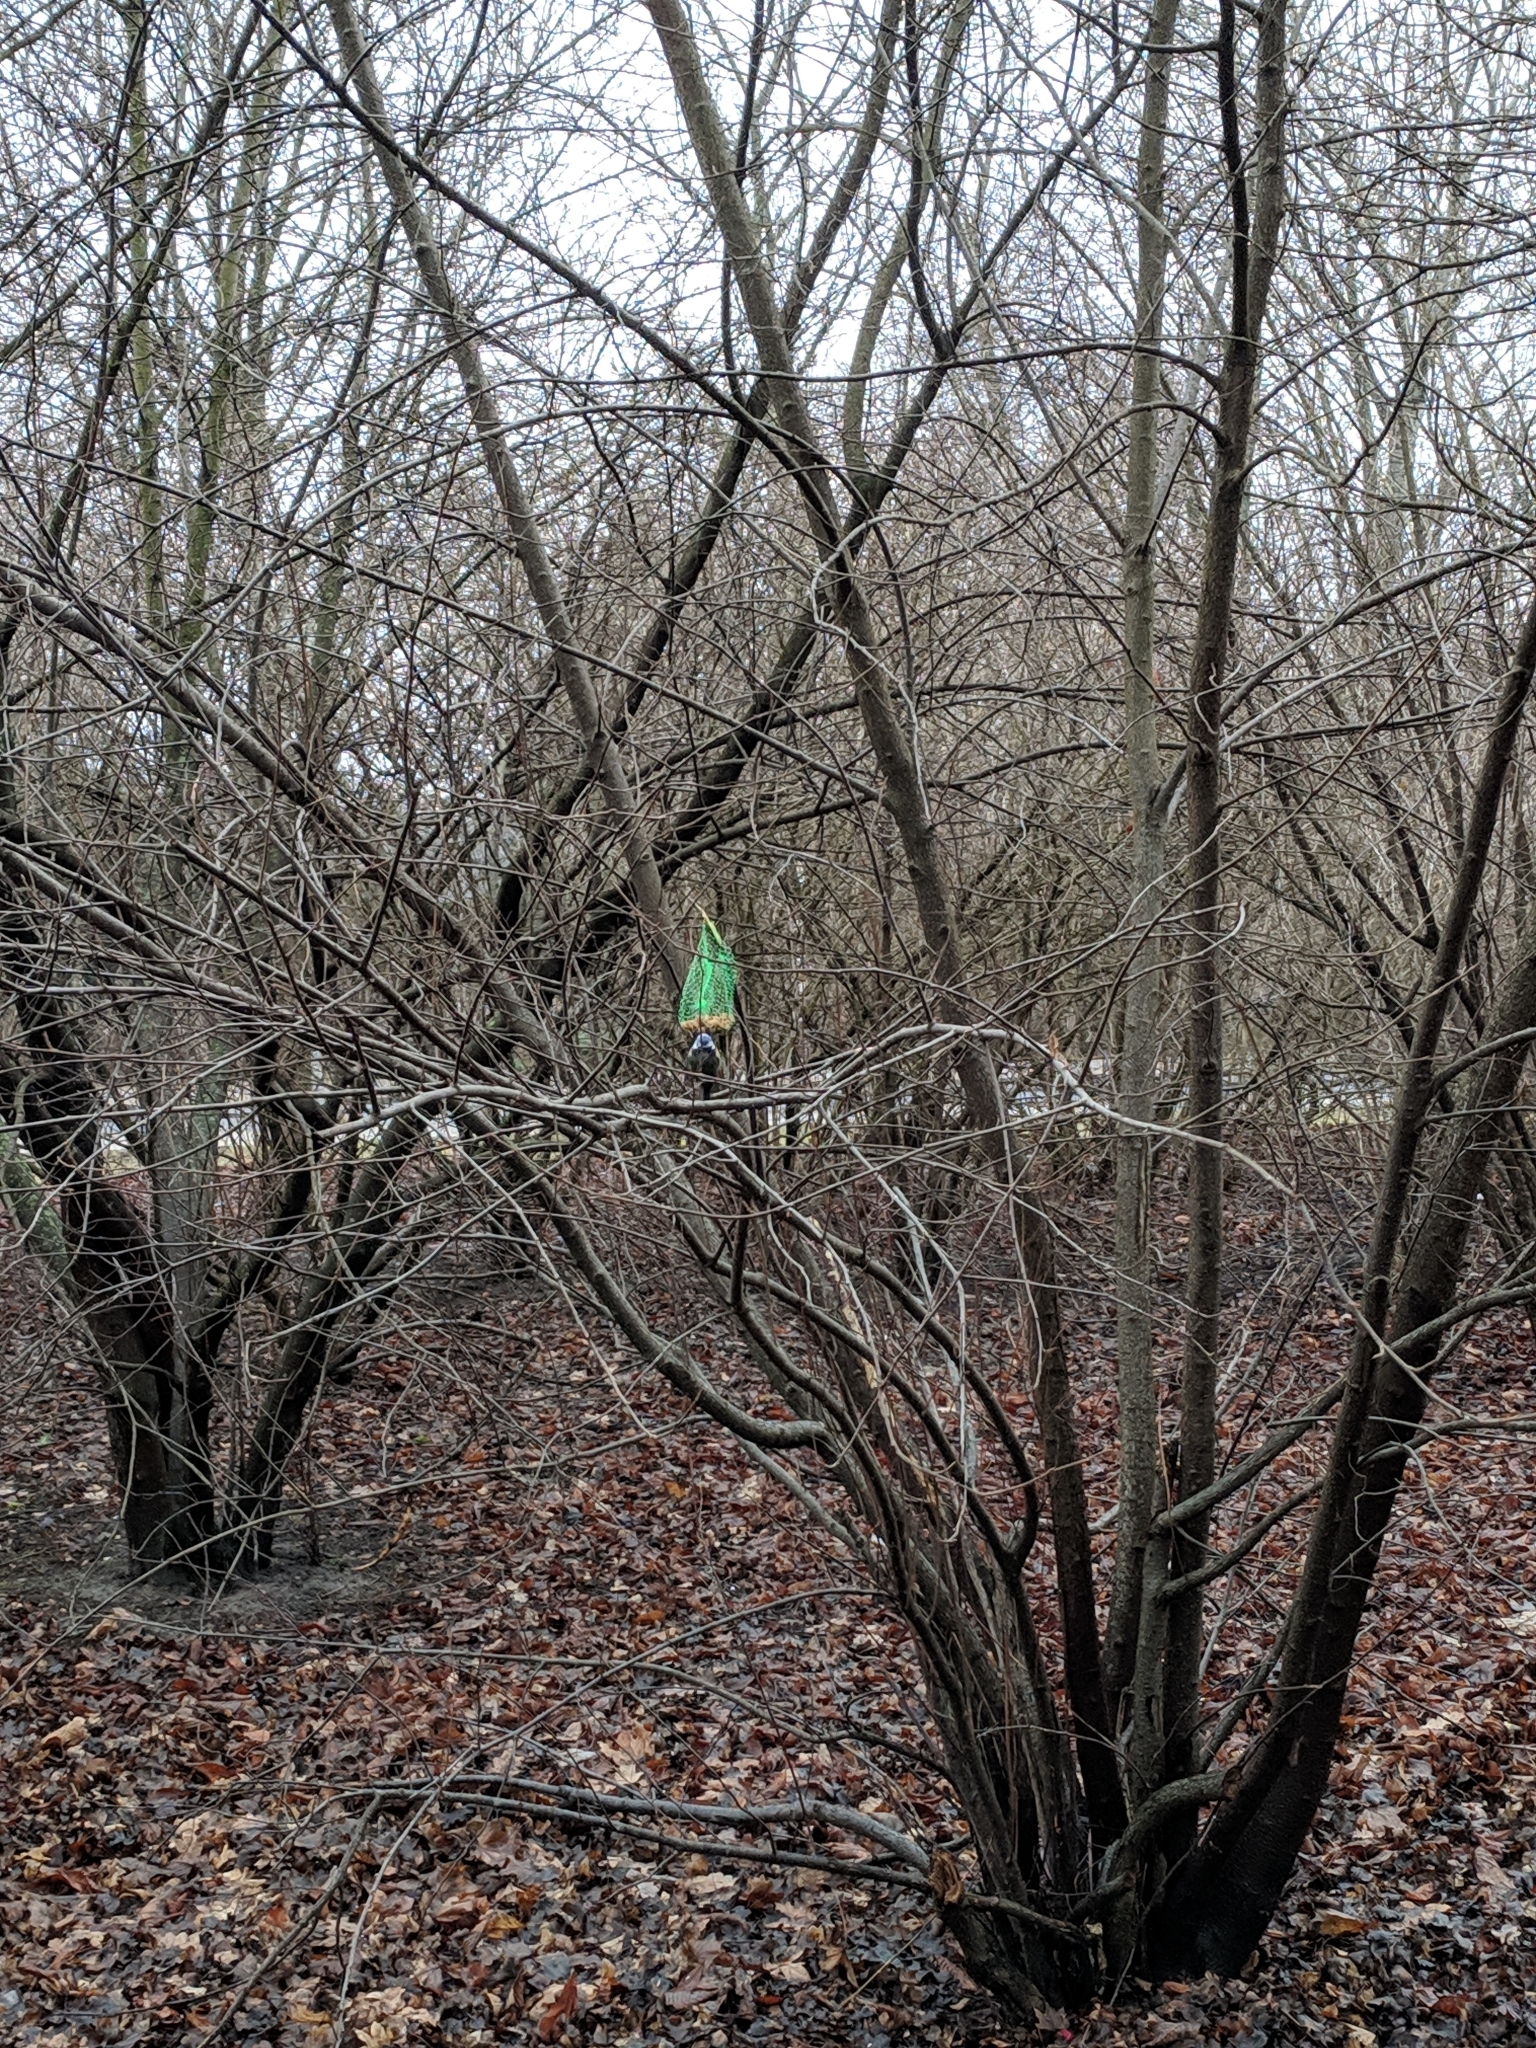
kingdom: Animalia
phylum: Chordata
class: Aves
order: Passeriformes
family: Paridae
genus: Cyanistes
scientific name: Cyanistes caeruleus
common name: Eurasian blue tit
